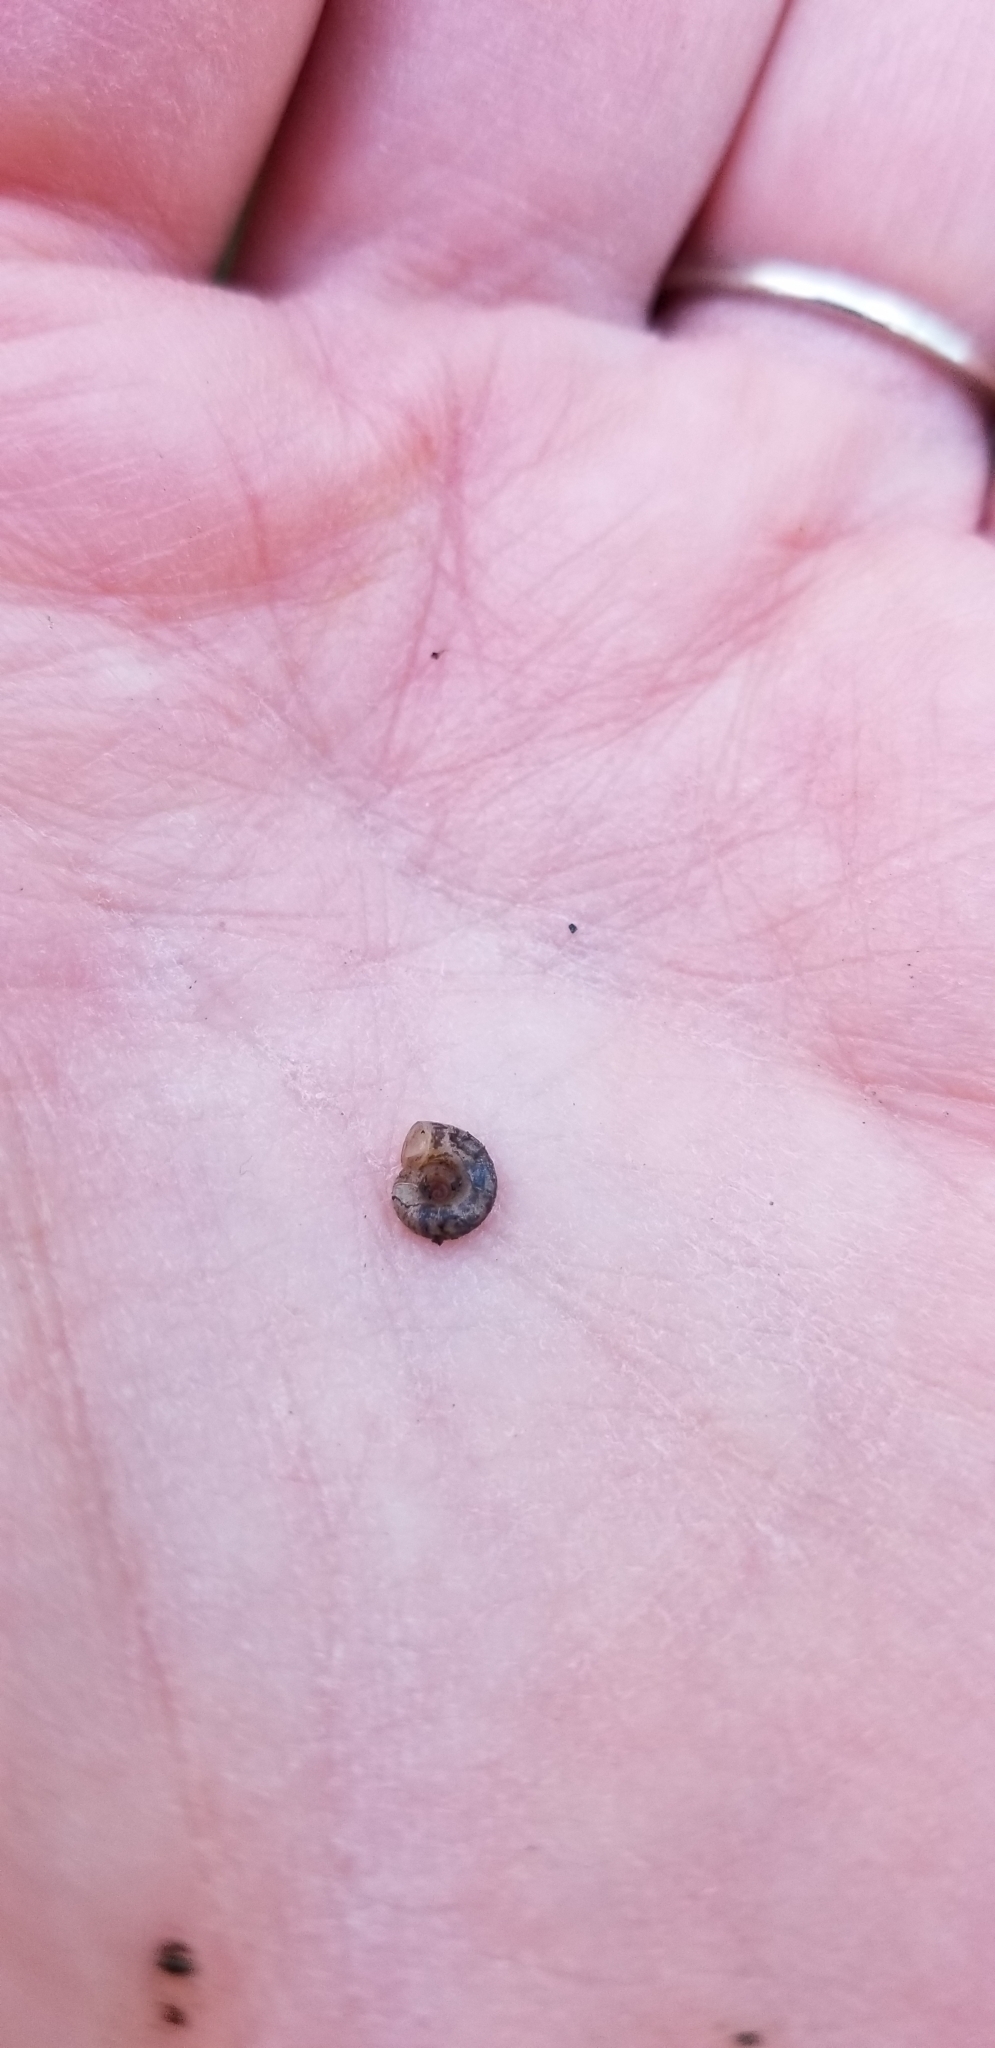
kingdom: Animalia
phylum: Mollusca
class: Gastropoda
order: Stylommatophora
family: Haplotrematidae
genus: Haplotrema
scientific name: Haplotrema duranti
